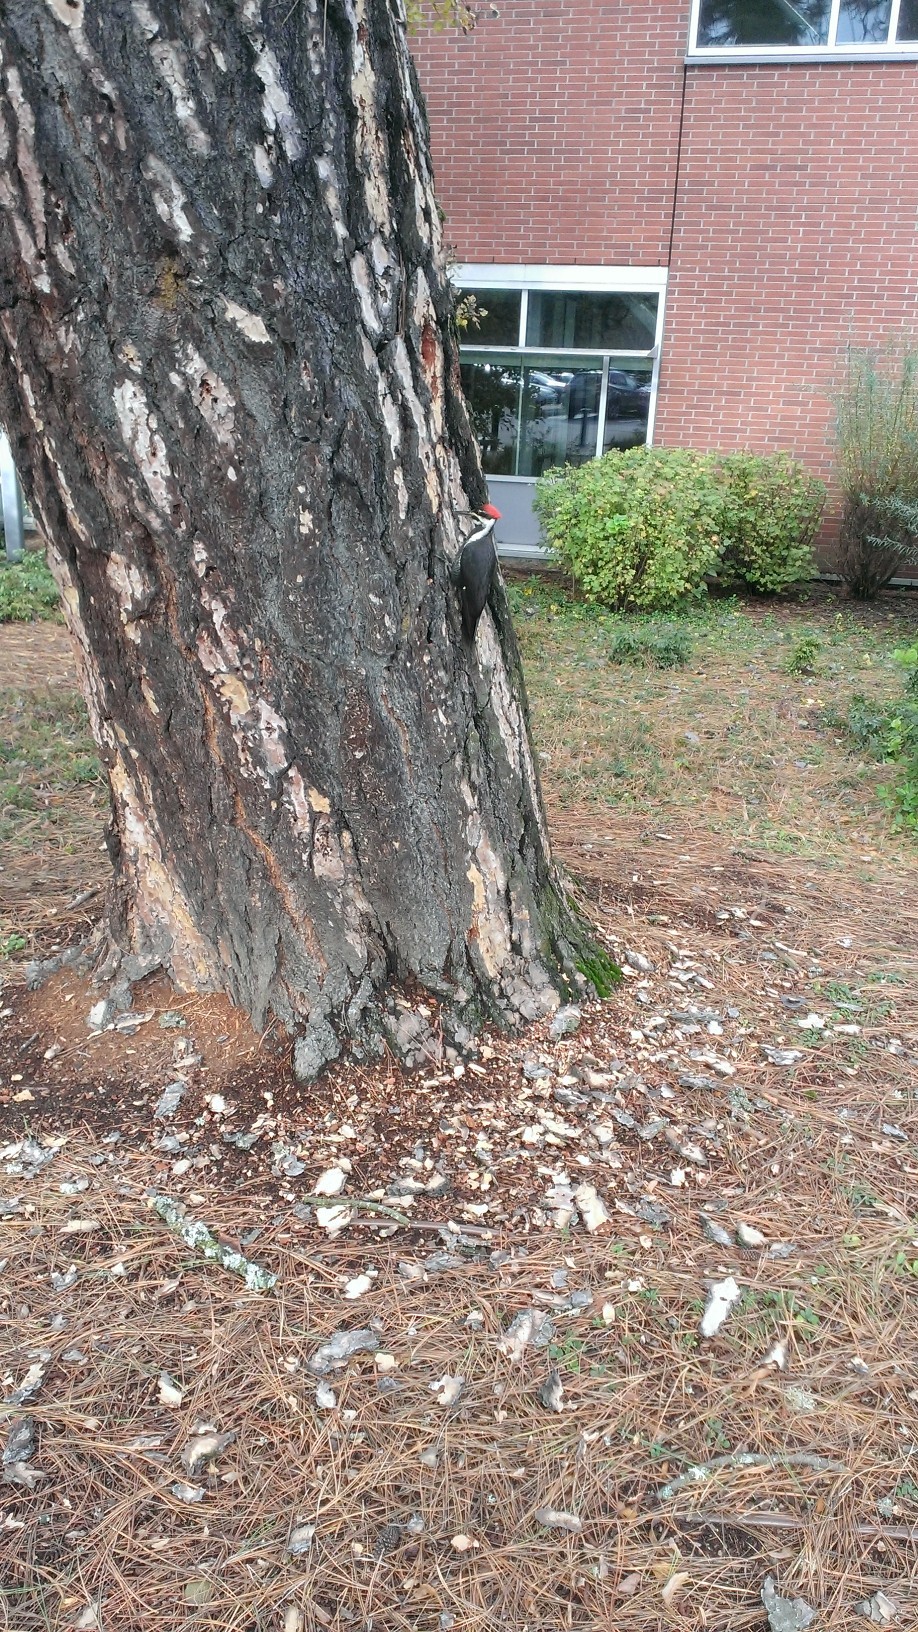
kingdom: Animalia
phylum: Chordata
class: Aves
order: Piciformes
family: Picidae
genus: Dryocopus
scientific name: Dryocopus pileatus
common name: Pileated woodpecker
